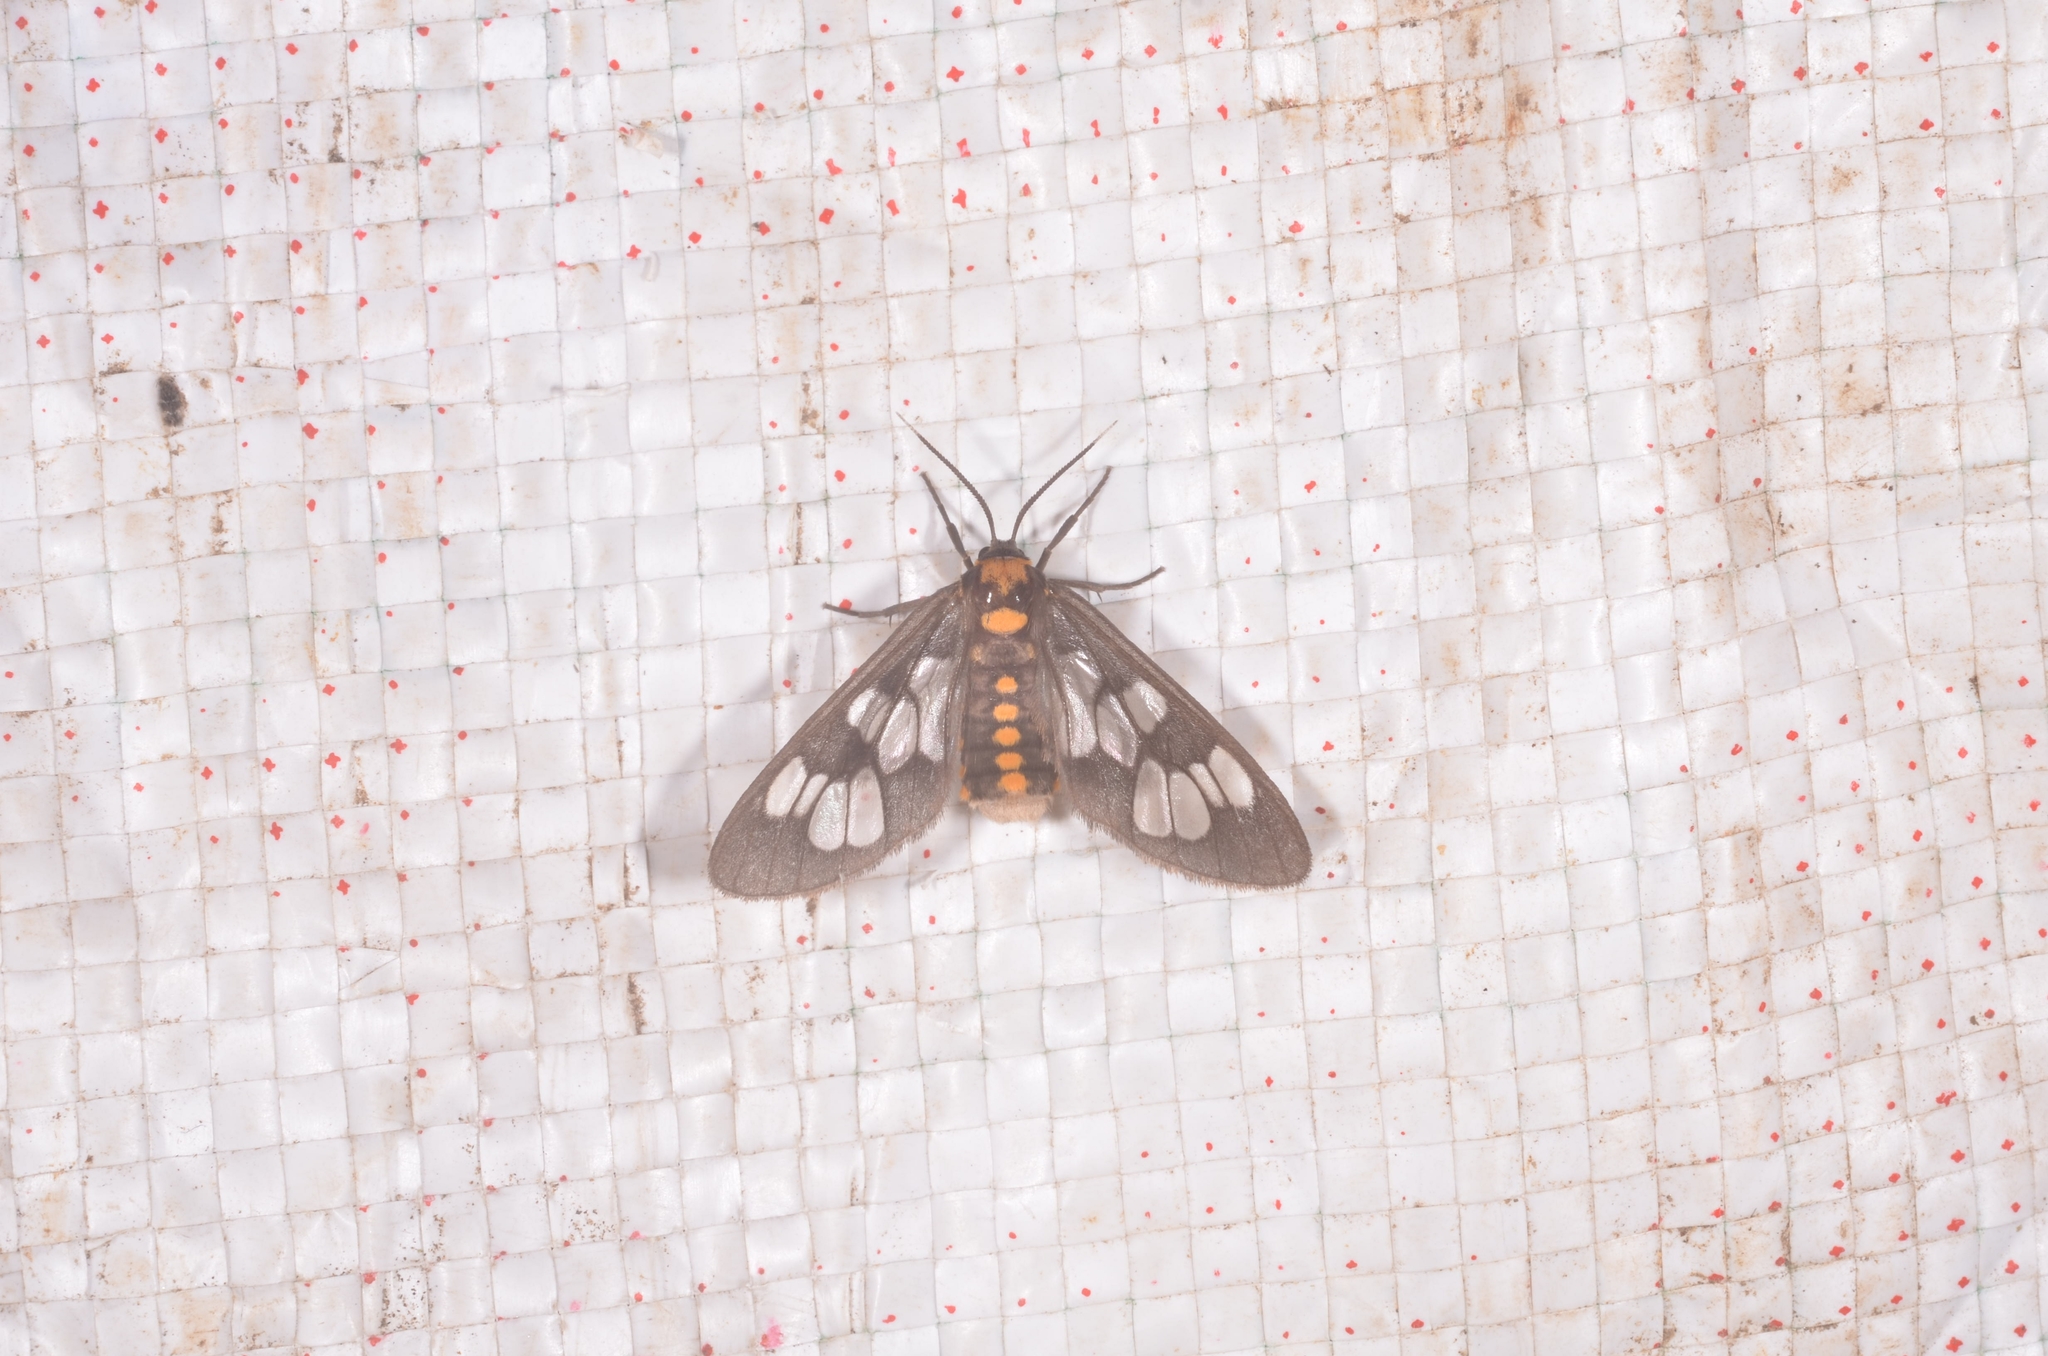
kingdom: Animalia
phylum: Arthropoda
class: Insecta
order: Lepidoptera
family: Erebidae
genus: Eressa
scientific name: Eressa confinis
